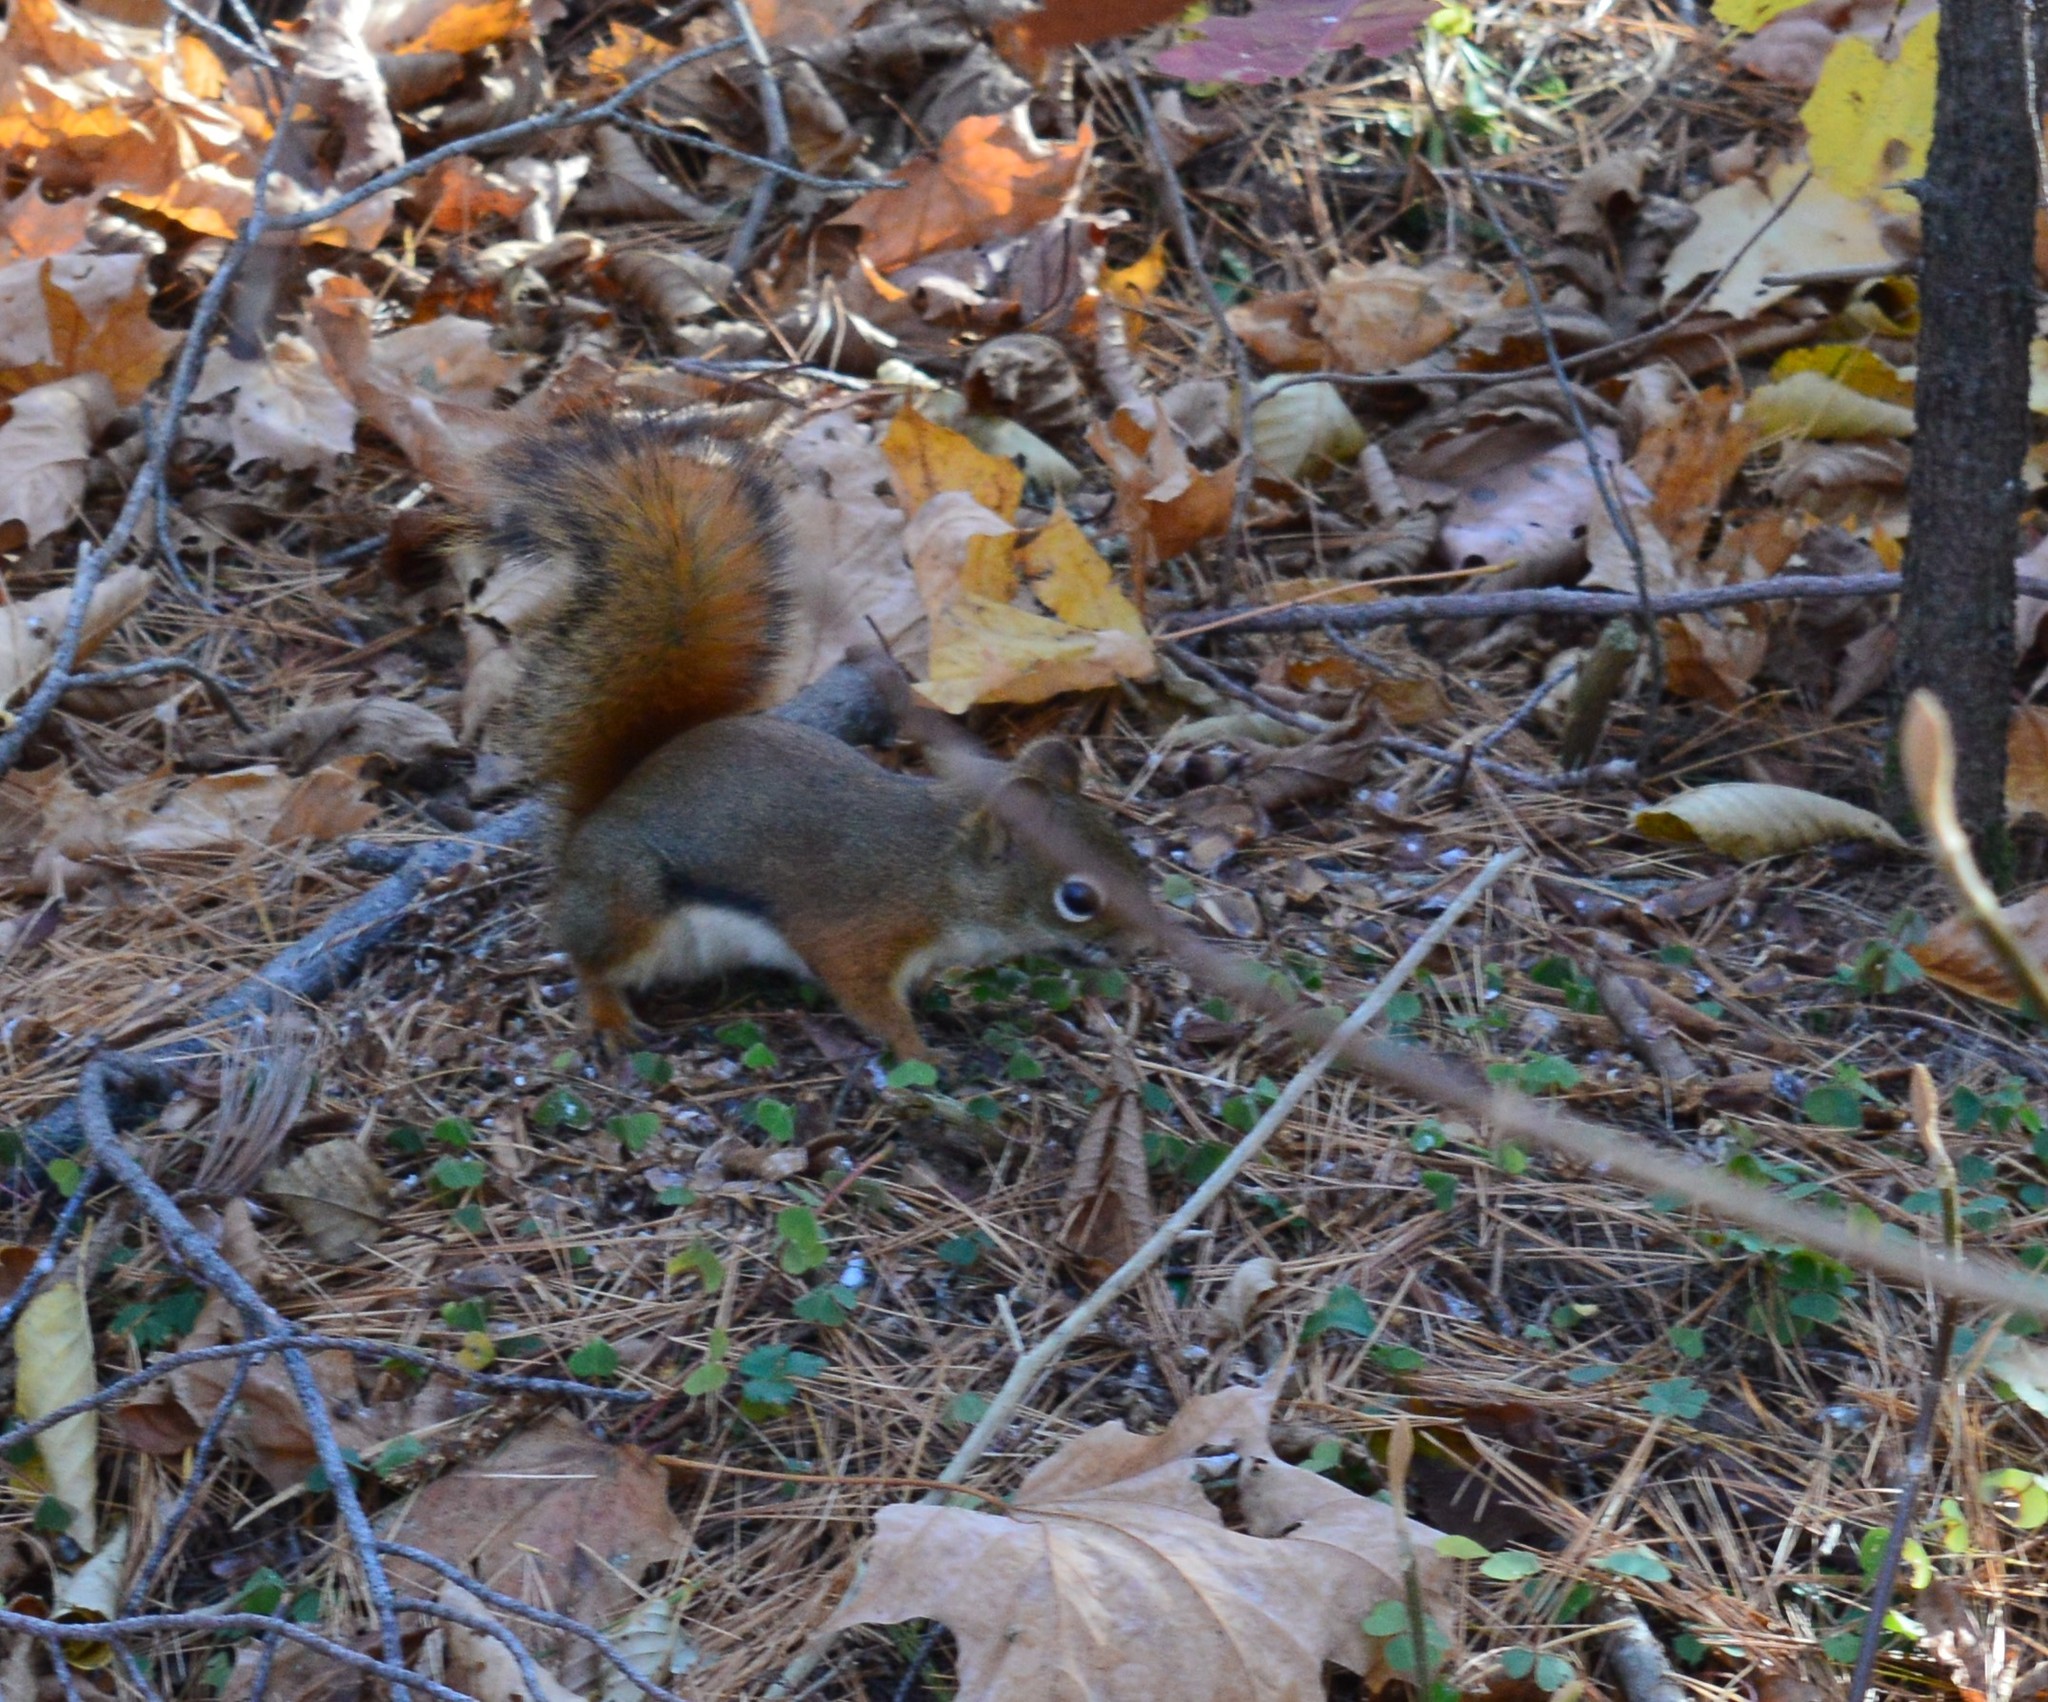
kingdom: Animalia
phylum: Chordata
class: Mammalia
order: Rodentia
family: Sciuridae
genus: Tamiasciurus
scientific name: Tamiasciurus hudsonicus
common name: Red squirrel
